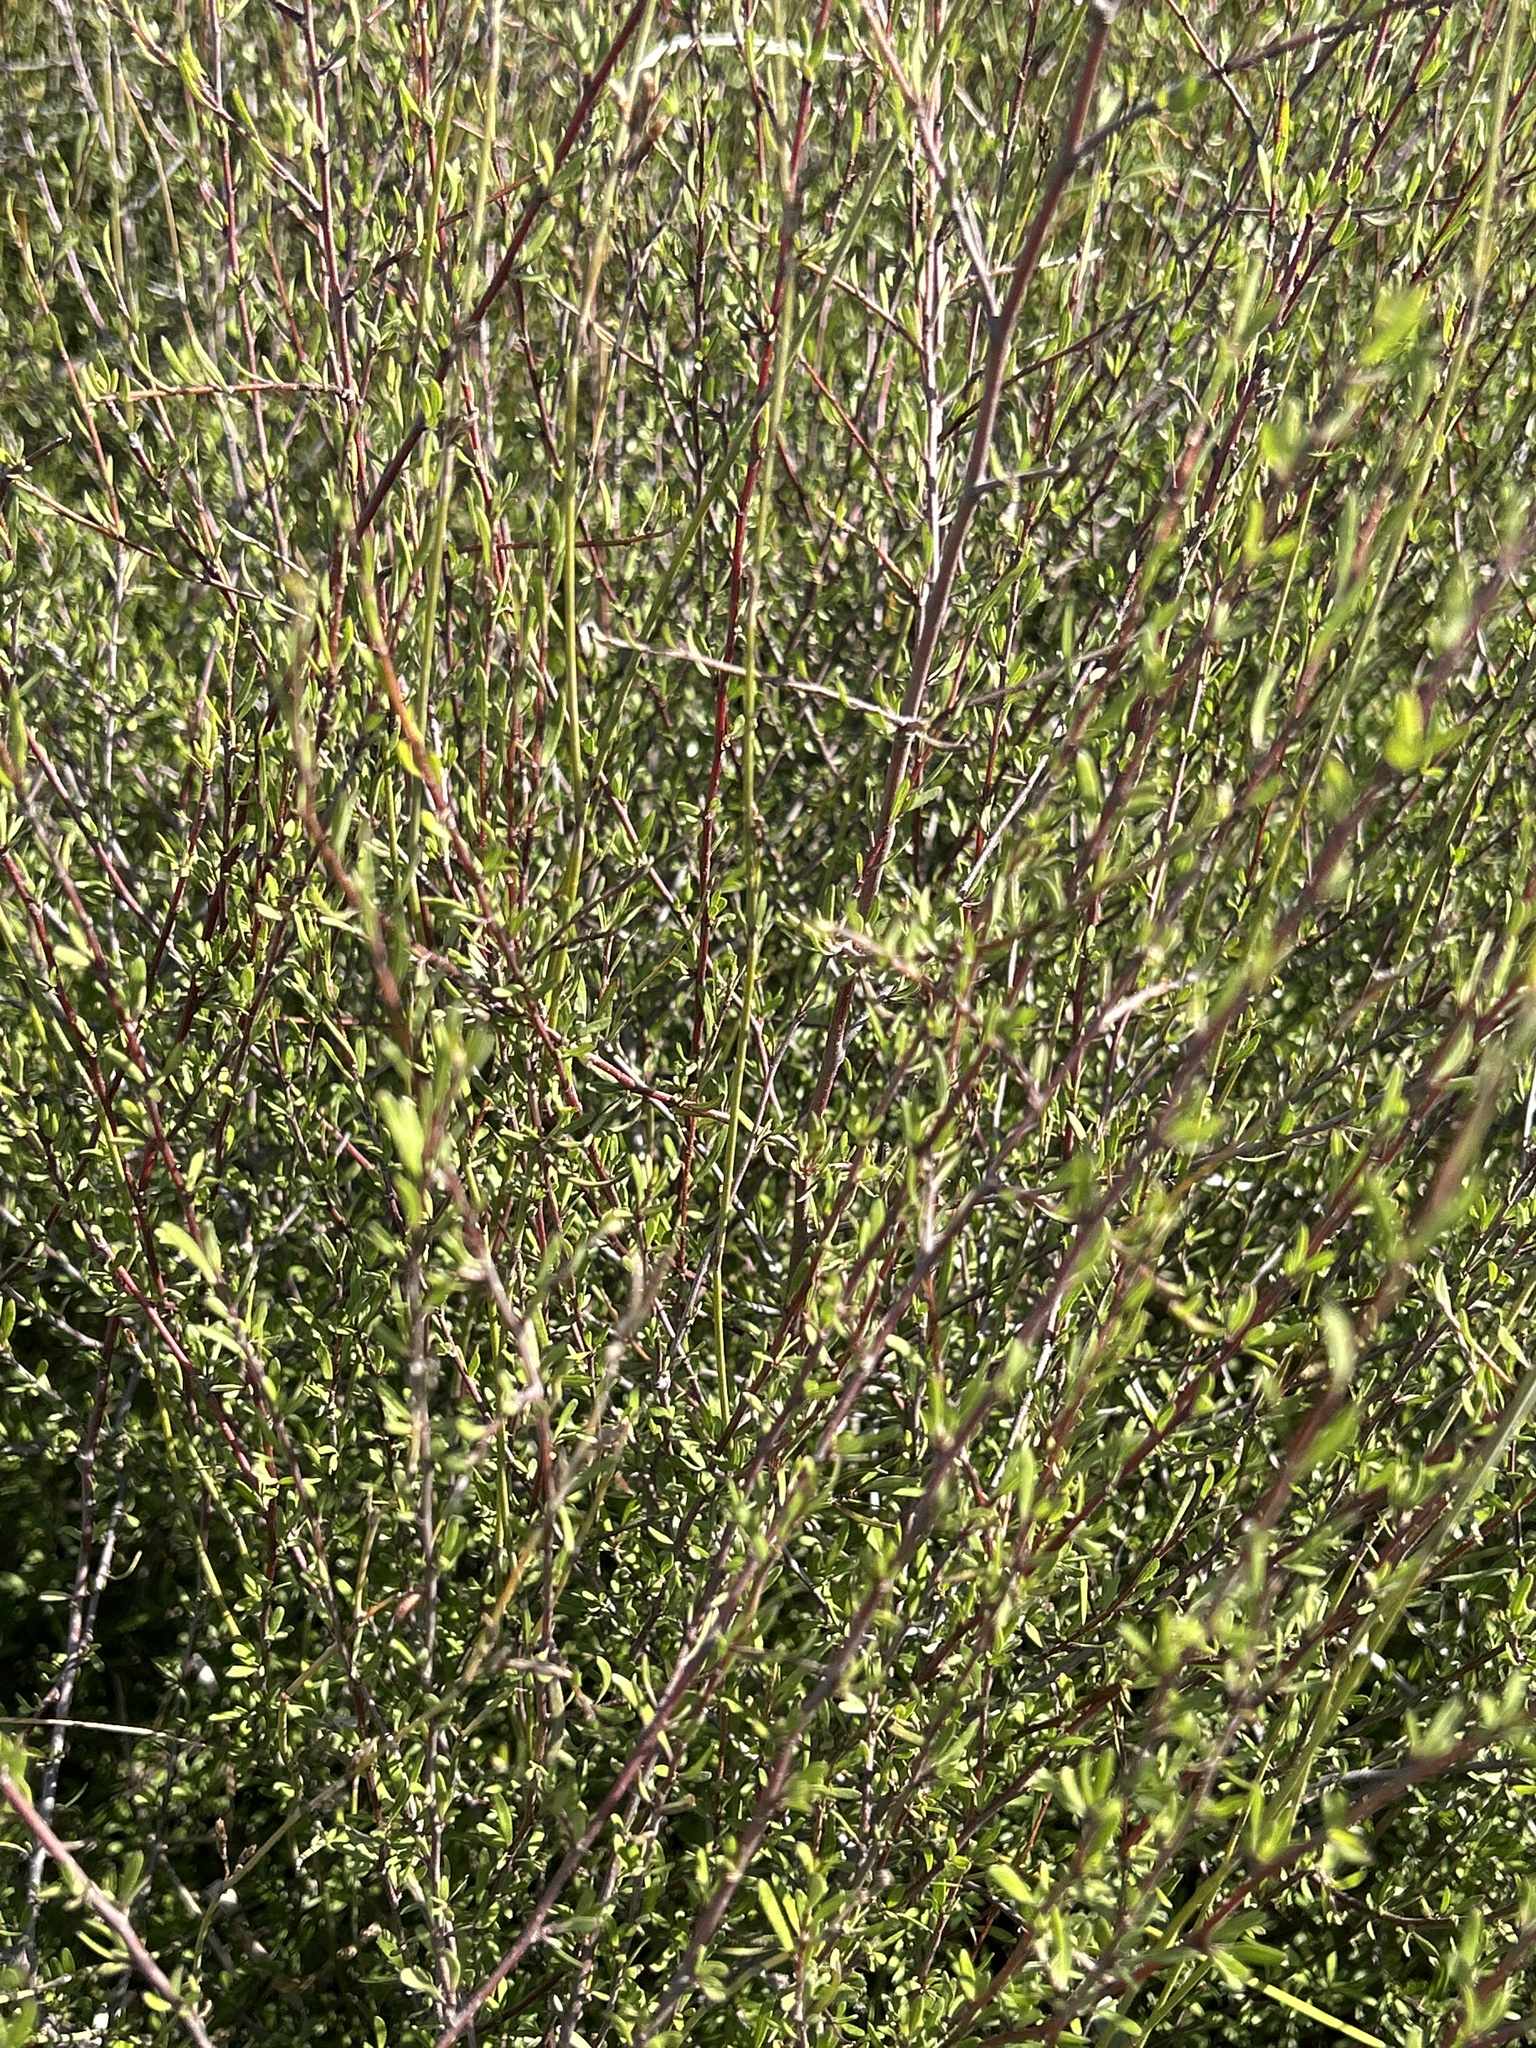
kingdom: Plantae
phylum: Tracheophyta
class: Magnoliopsida
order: Malvales
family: Malvaceae
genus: Plagianthus
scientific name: Plagianthus divaricatus
